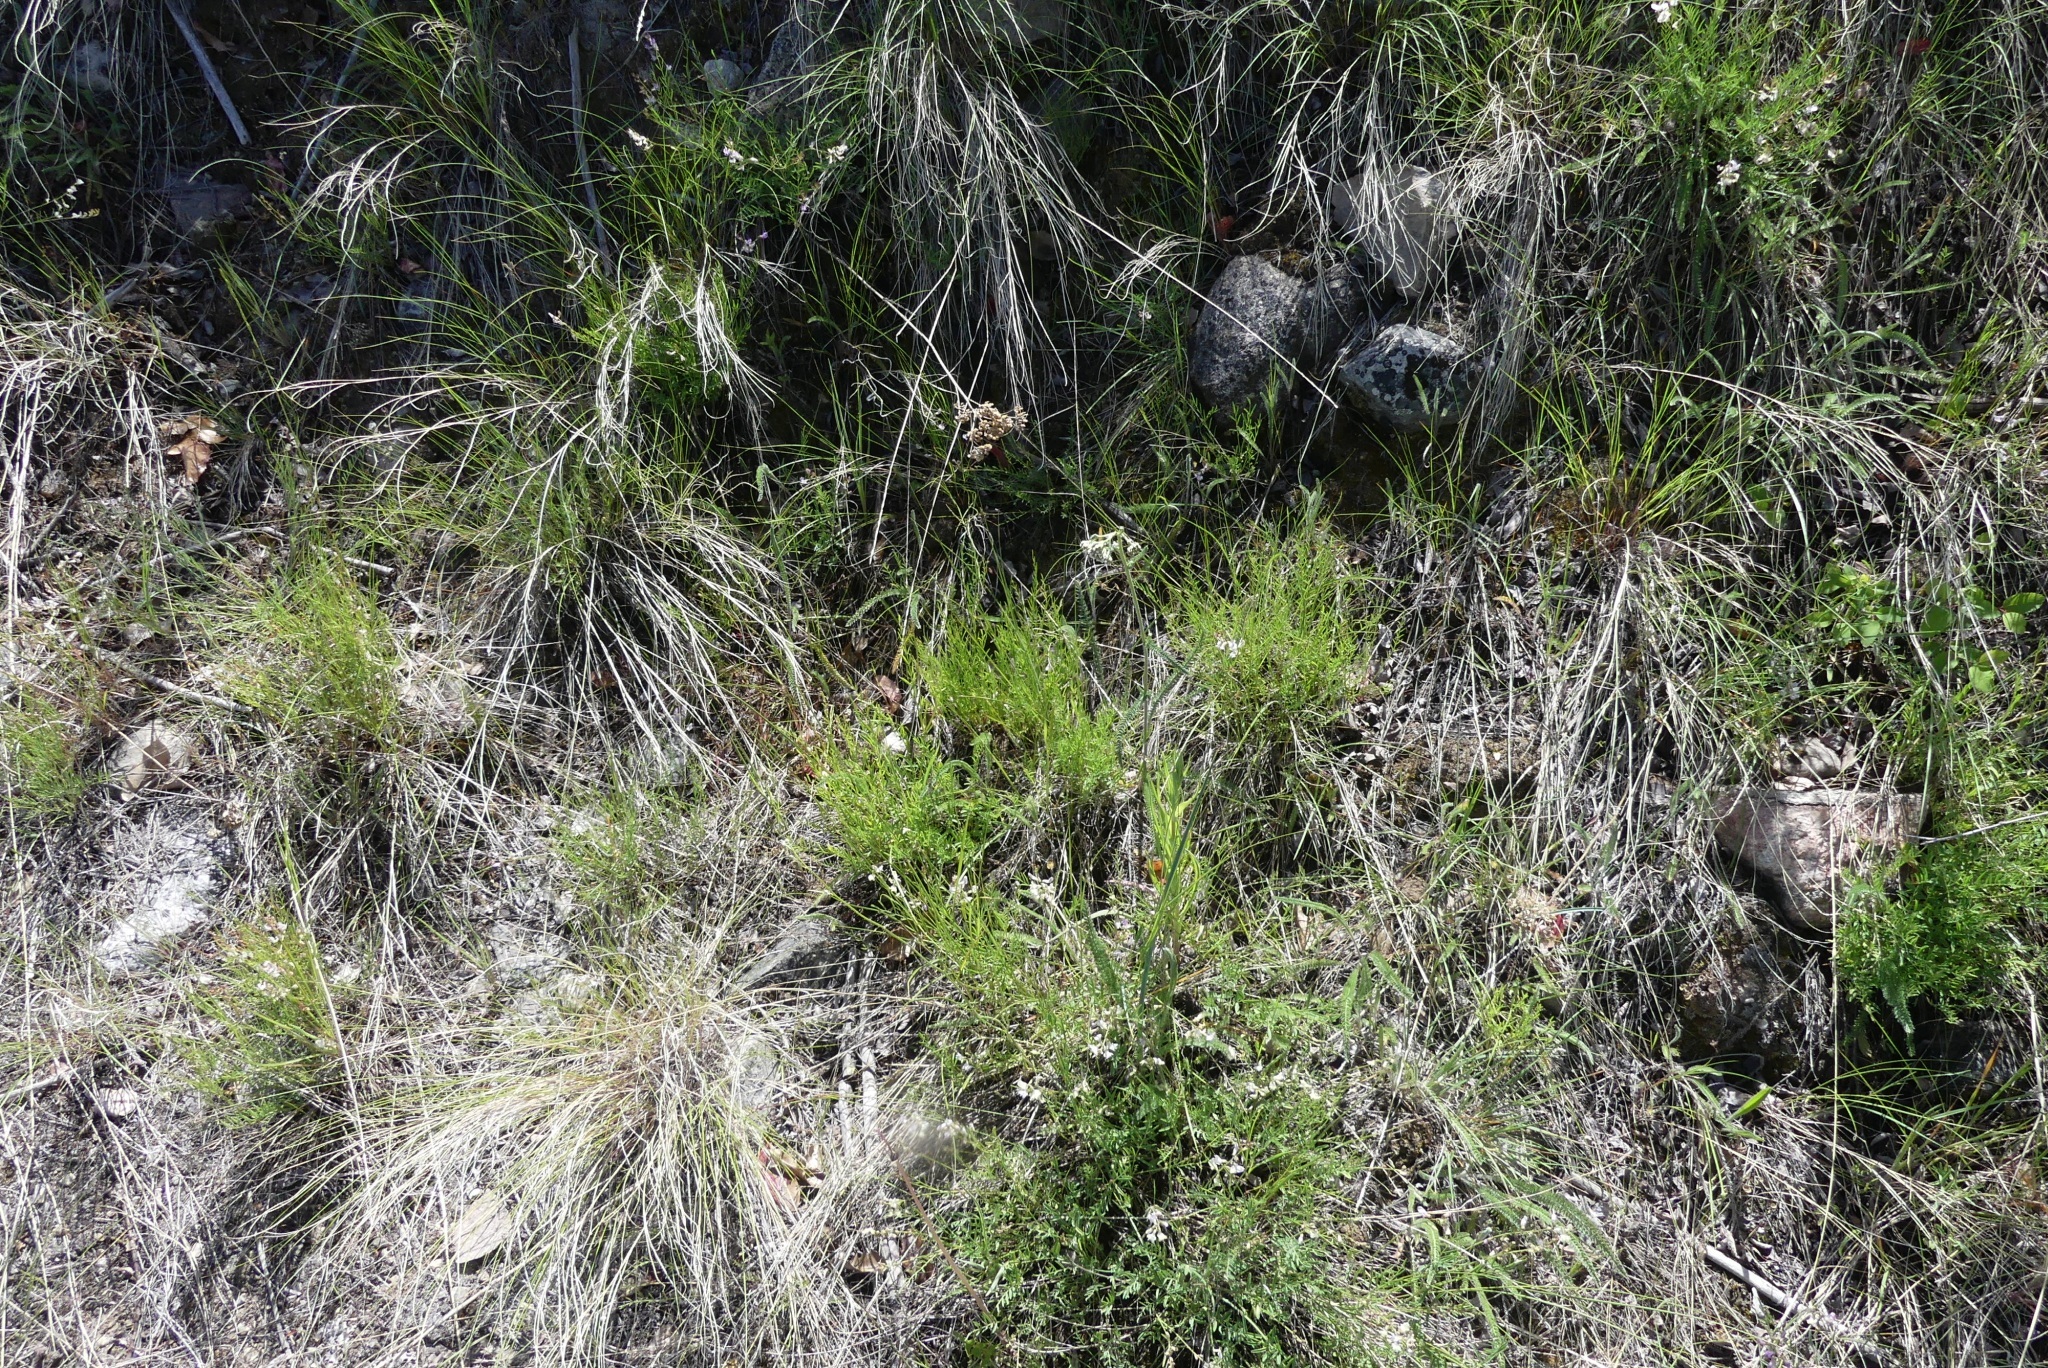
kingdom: Plantae
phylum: Tracheophyta
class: Magnoliopsida
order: Asterales
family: Asteraceae
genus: Achillea
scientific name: Achillea millefolium
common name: Yarrow
